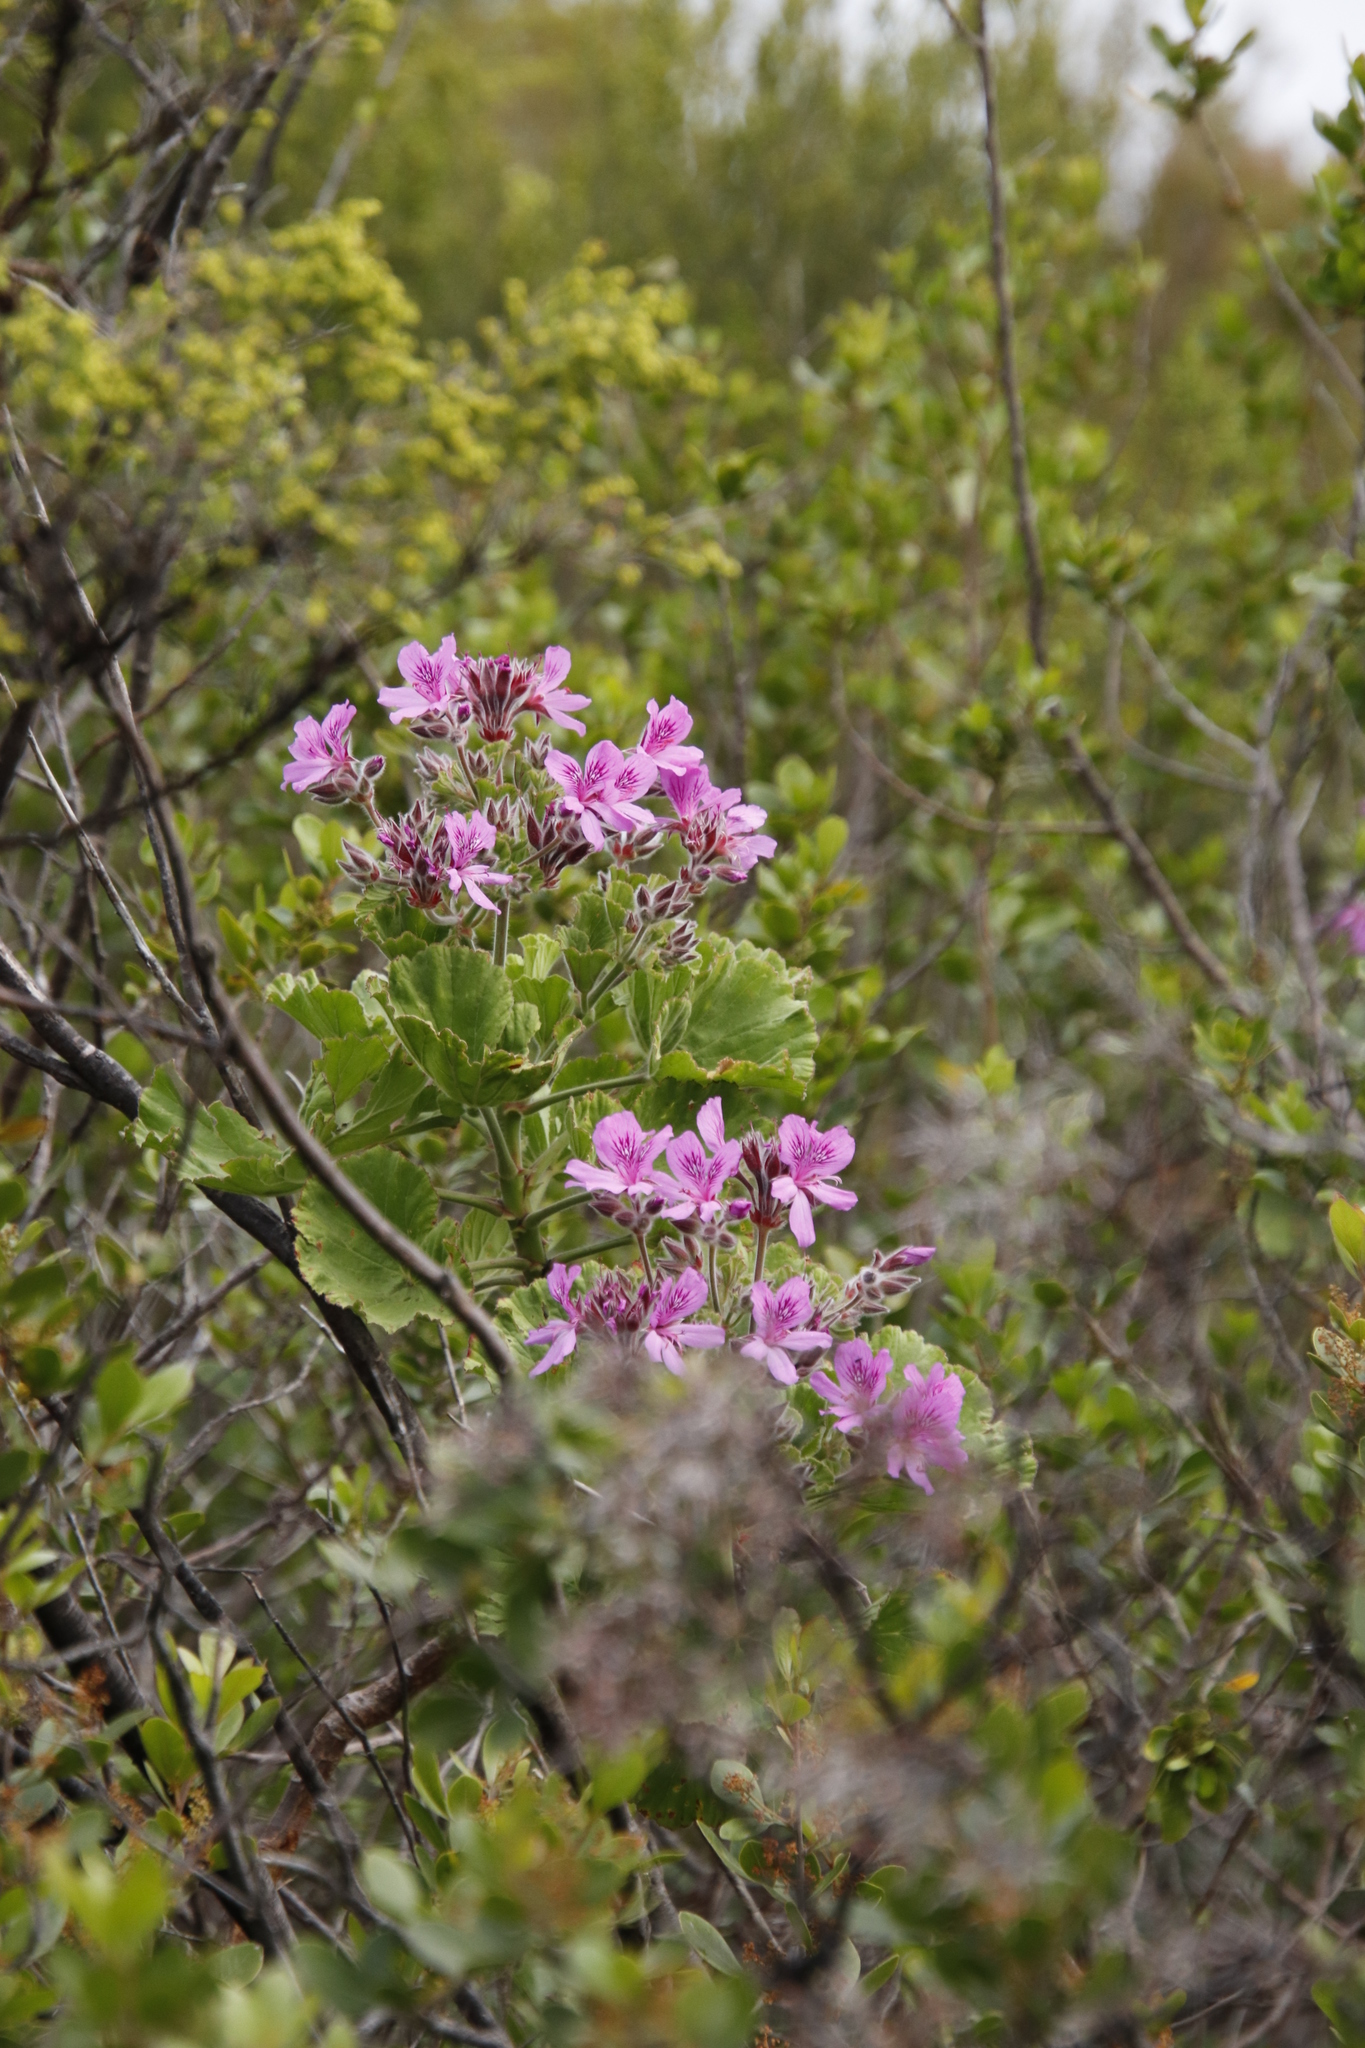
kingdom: Plantae
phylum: Tracheophyta
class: Magnoliopsida
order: Geraniales
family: Geraniaceae
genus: Pelargonium
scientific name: Pelargonium cucullatum
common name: Tree pelargonium
